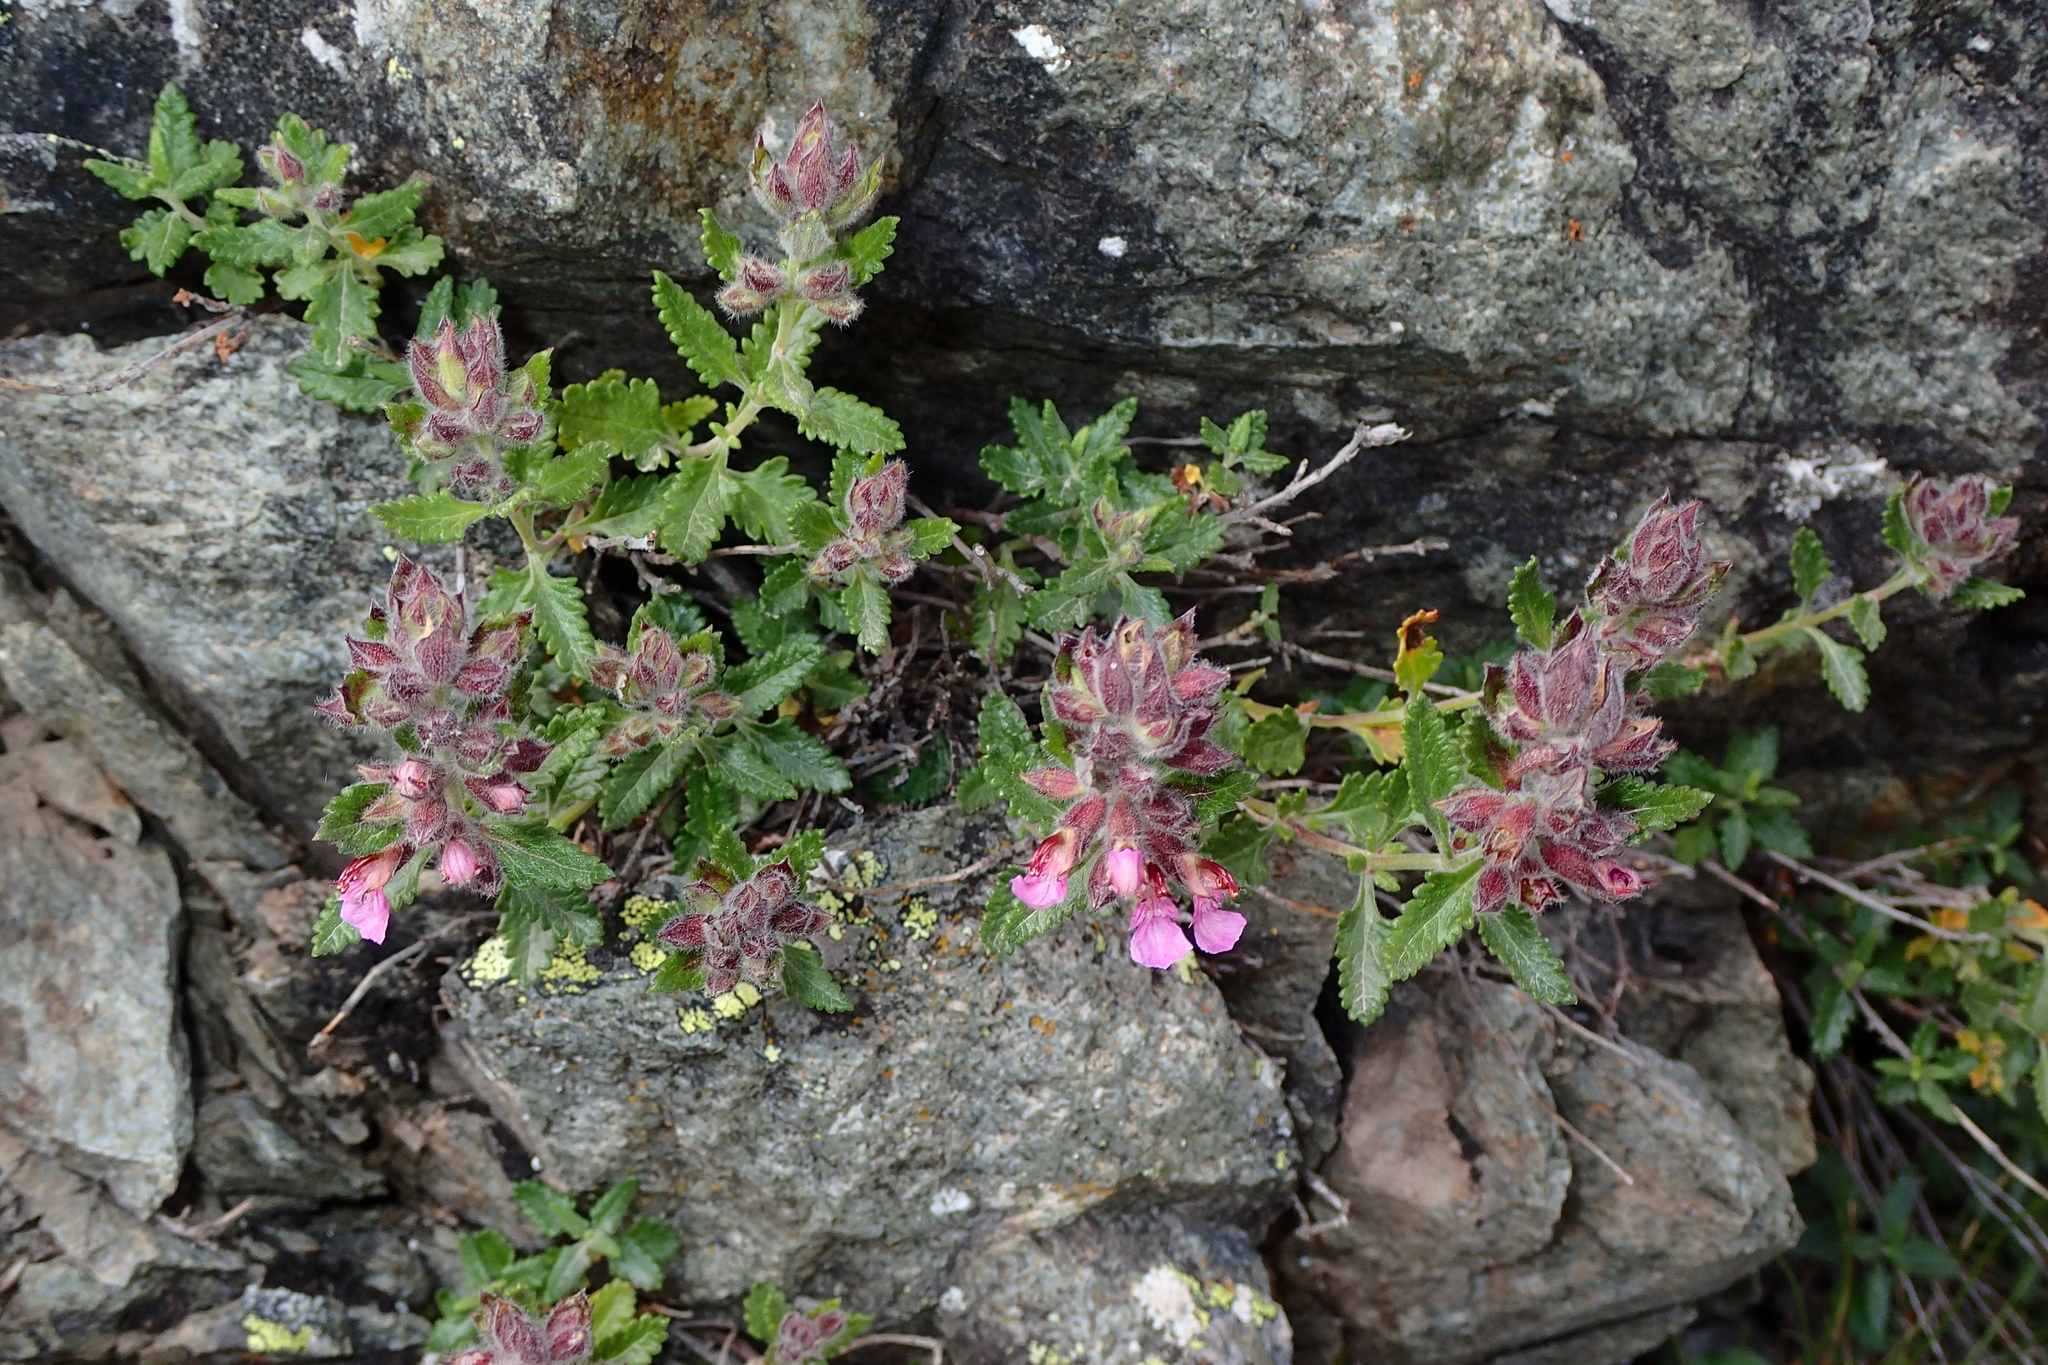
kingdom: Plantae
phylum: Tracheophyta
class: Magnoliopsida
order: Lamiales
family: Lamiaceae
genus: Teucrium
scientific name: Teucrium chamaedrys
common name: Wall germander
